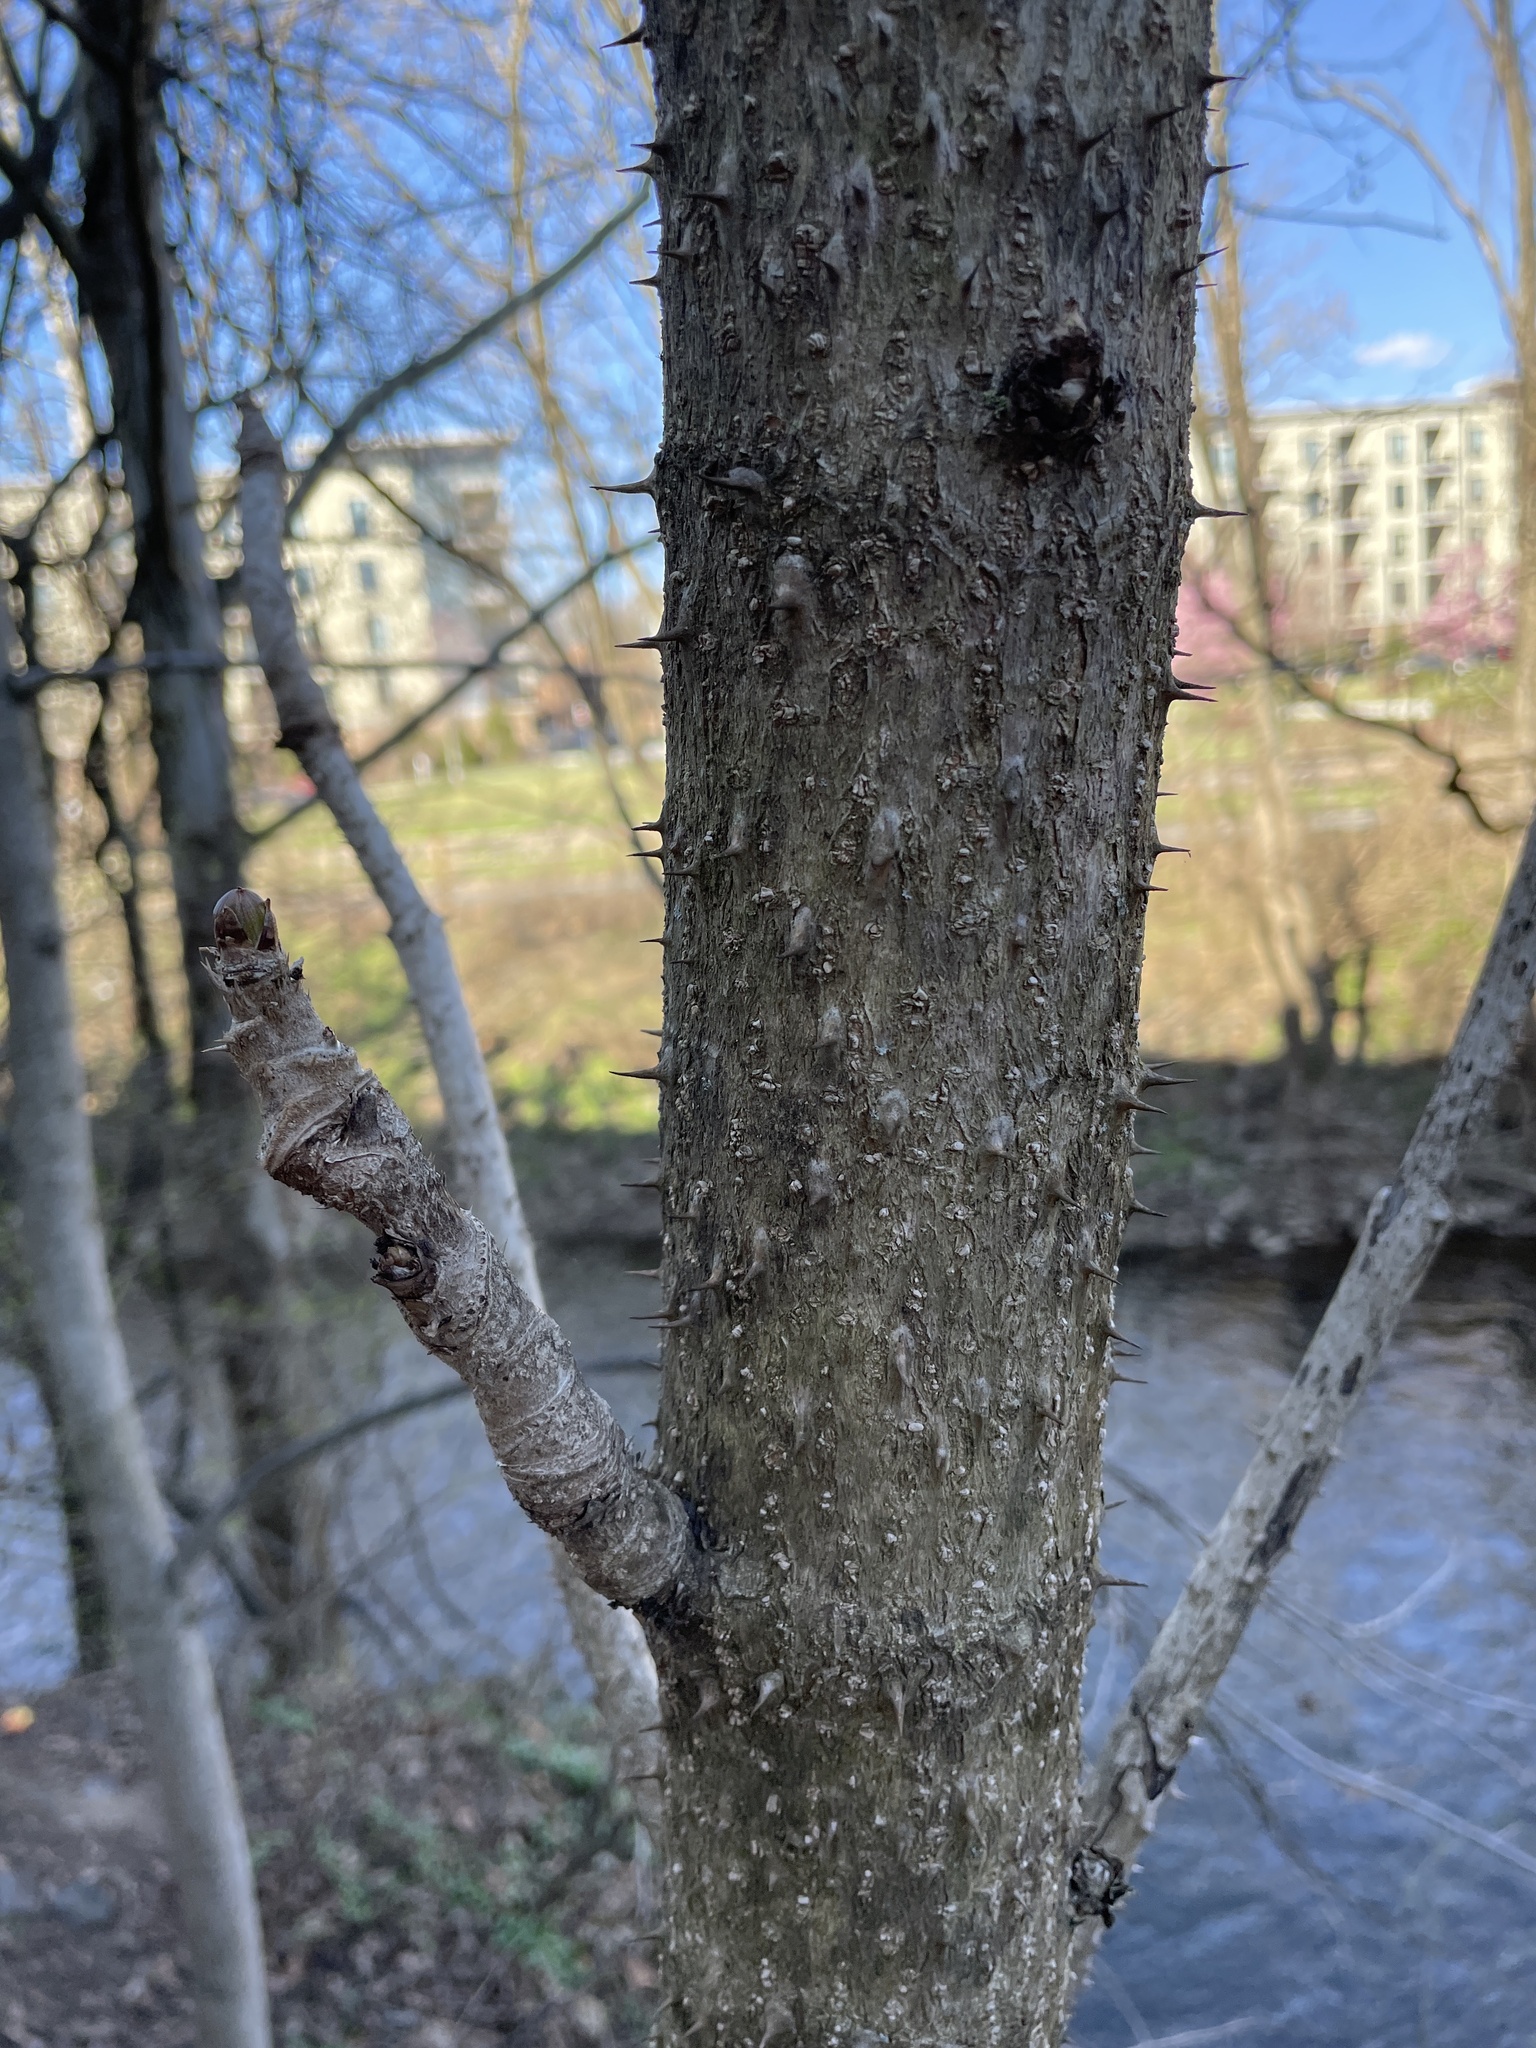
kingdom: Plantae
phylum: Tracheophyta
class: Magnoliopsida
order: Apiales
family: Araliaceae
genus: Aralia
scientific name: Aralia elata
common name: Japanese angelica-tree
